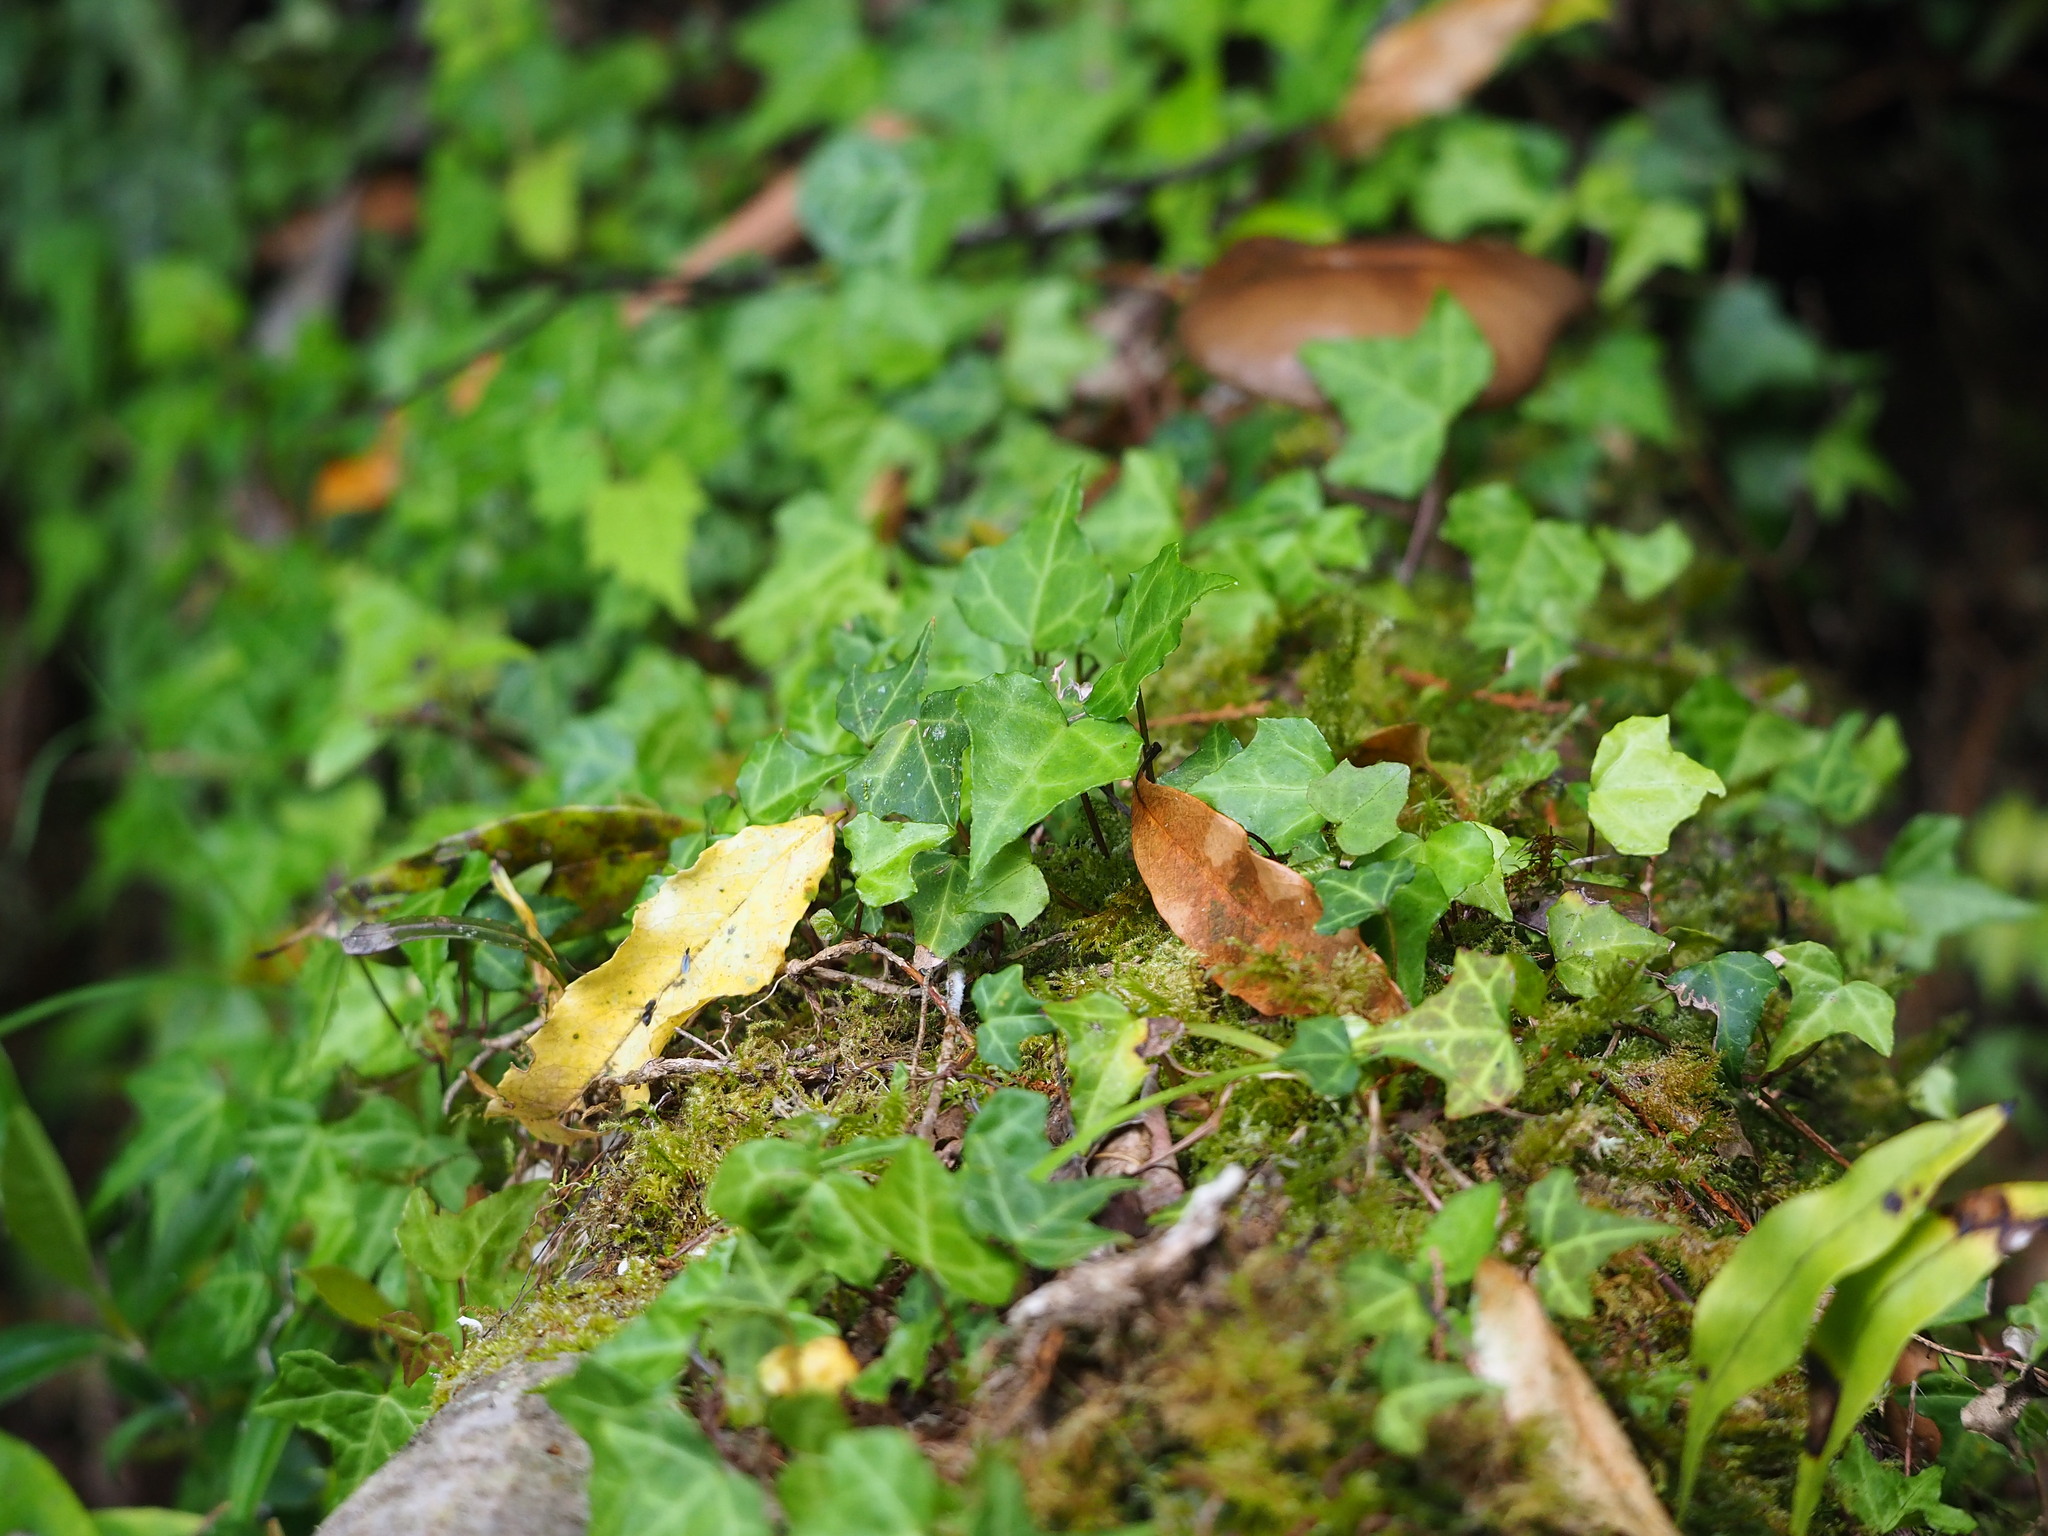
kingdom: Plantae
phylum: Tracheophyta
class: Magnoliopsida
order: Apiales
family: Araliaceae
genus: Hedera
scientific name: Hedera rhombea
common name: Japanese ivy
